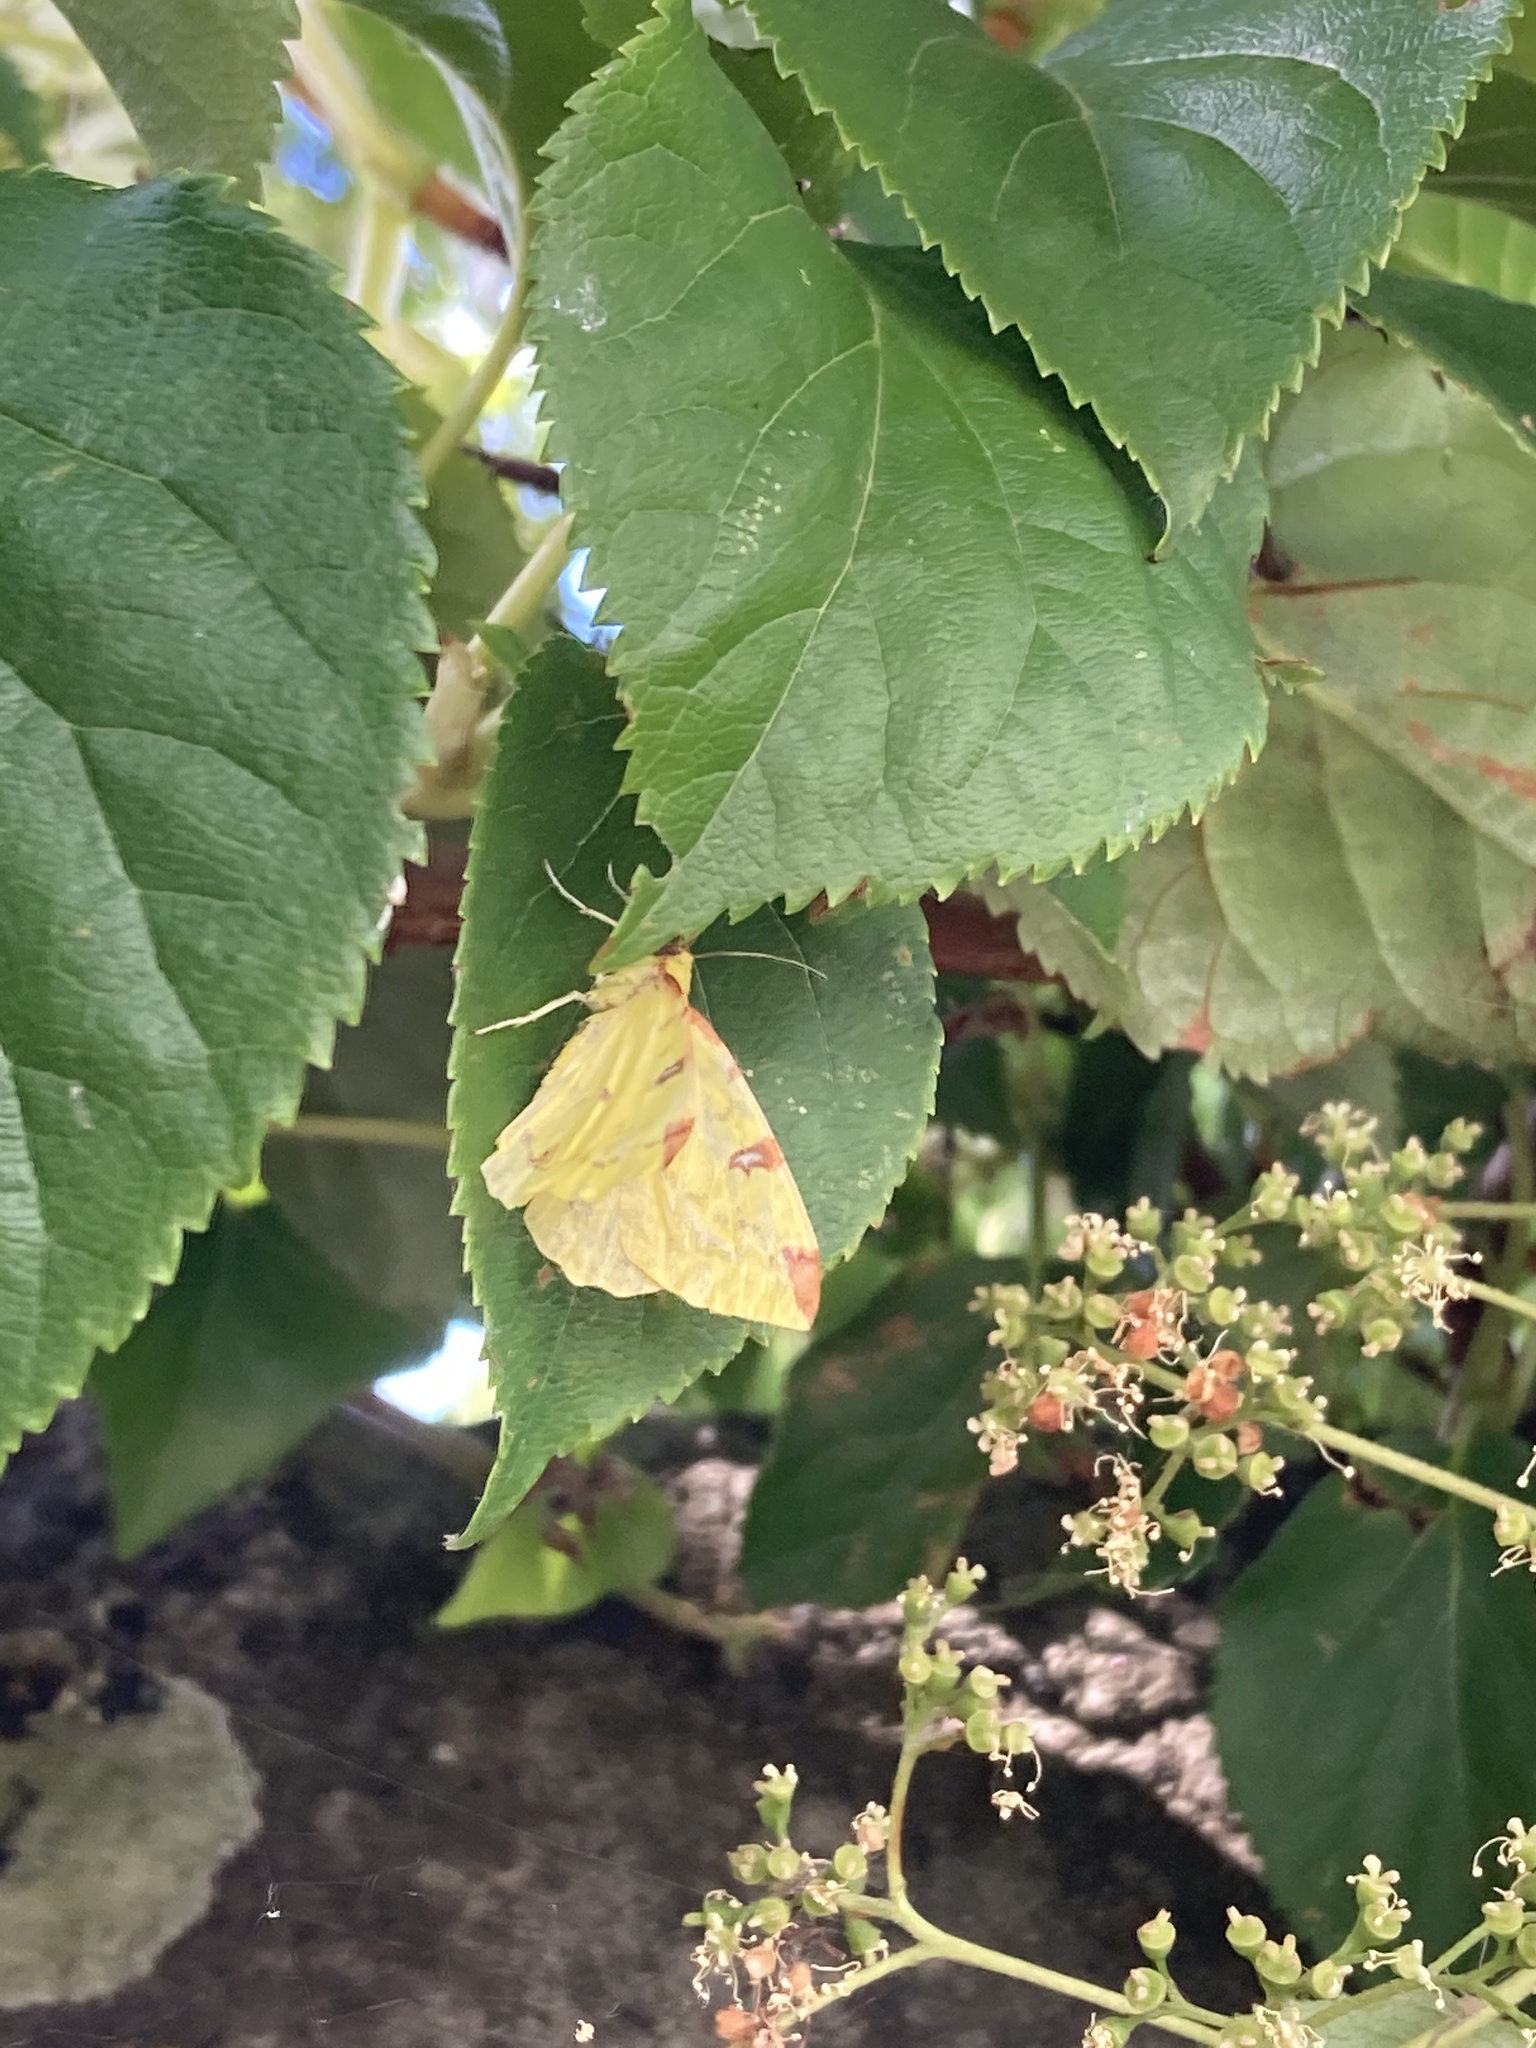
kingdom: Animalia
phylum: Arthropoda
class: Insecta
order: Lepidoptera
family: Geometridae
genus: Opisthograptis
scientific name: Opisthograptis luteolata
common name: Brimstone moth
